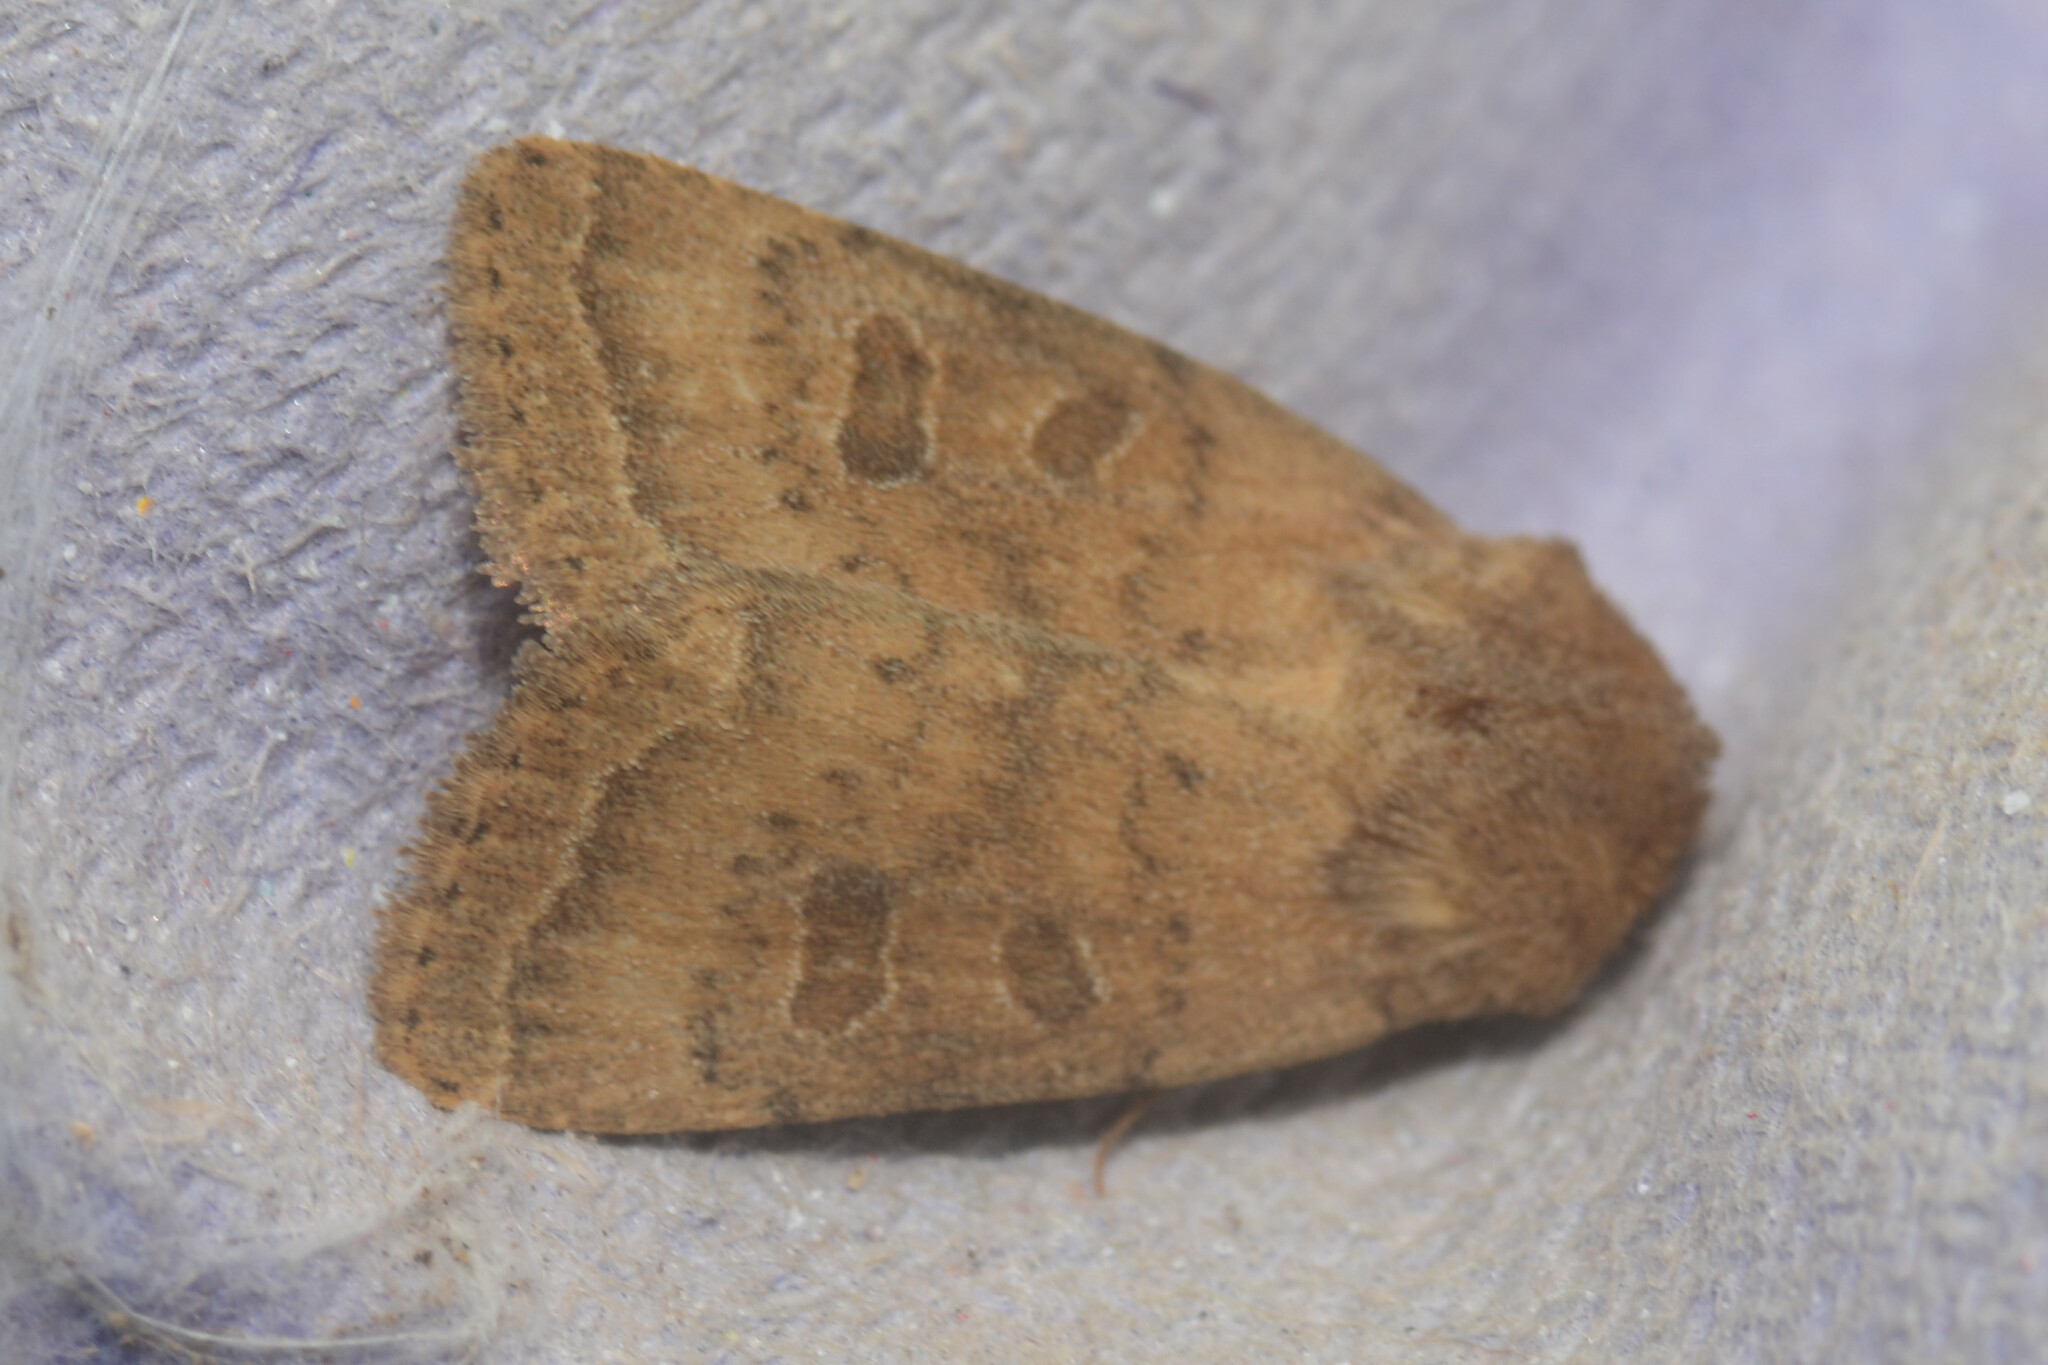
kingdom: Animalia
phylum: Arthropoda
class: Insecta
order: Lepidoptera
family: Noctuidae
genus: Hoplodrina
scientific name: Hoplodrina octogenaria
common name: Uncertain
